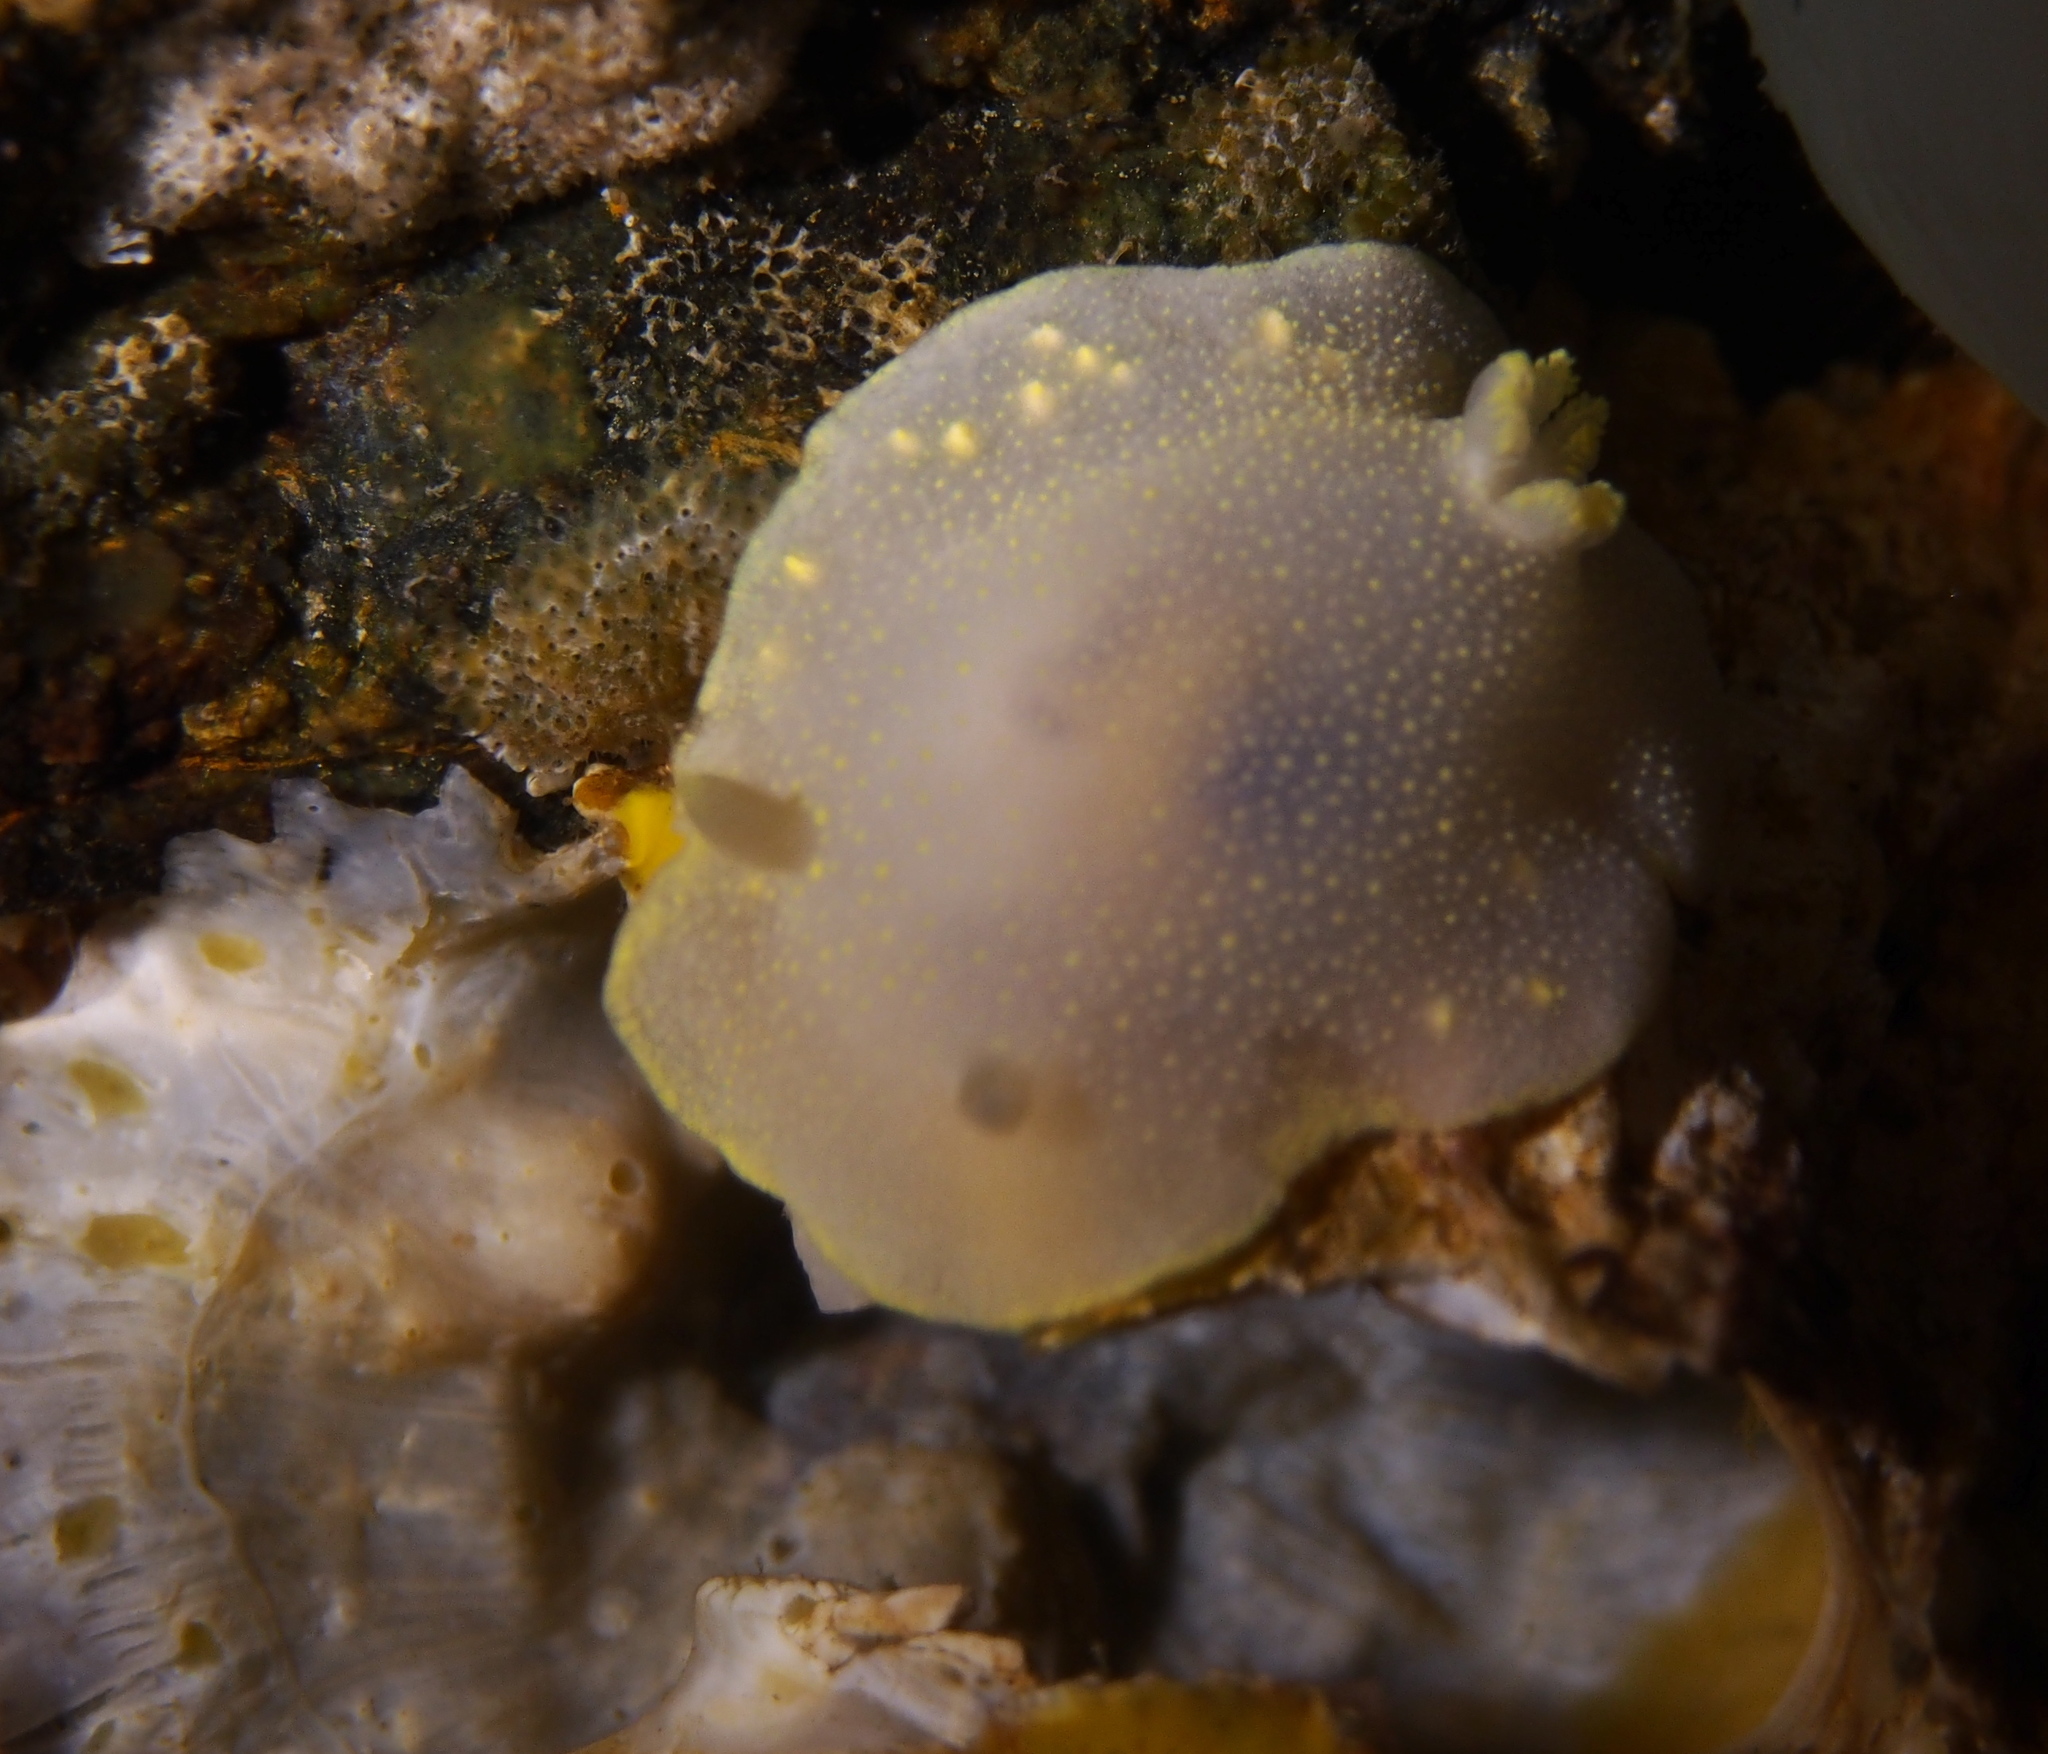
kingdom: Animalia
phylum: Mollusca
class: Gastropoda
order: Nudibranchia
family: Cadlinidae
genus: Cadlina
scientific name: Cadlina laevis
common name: White atlantic cadlina
